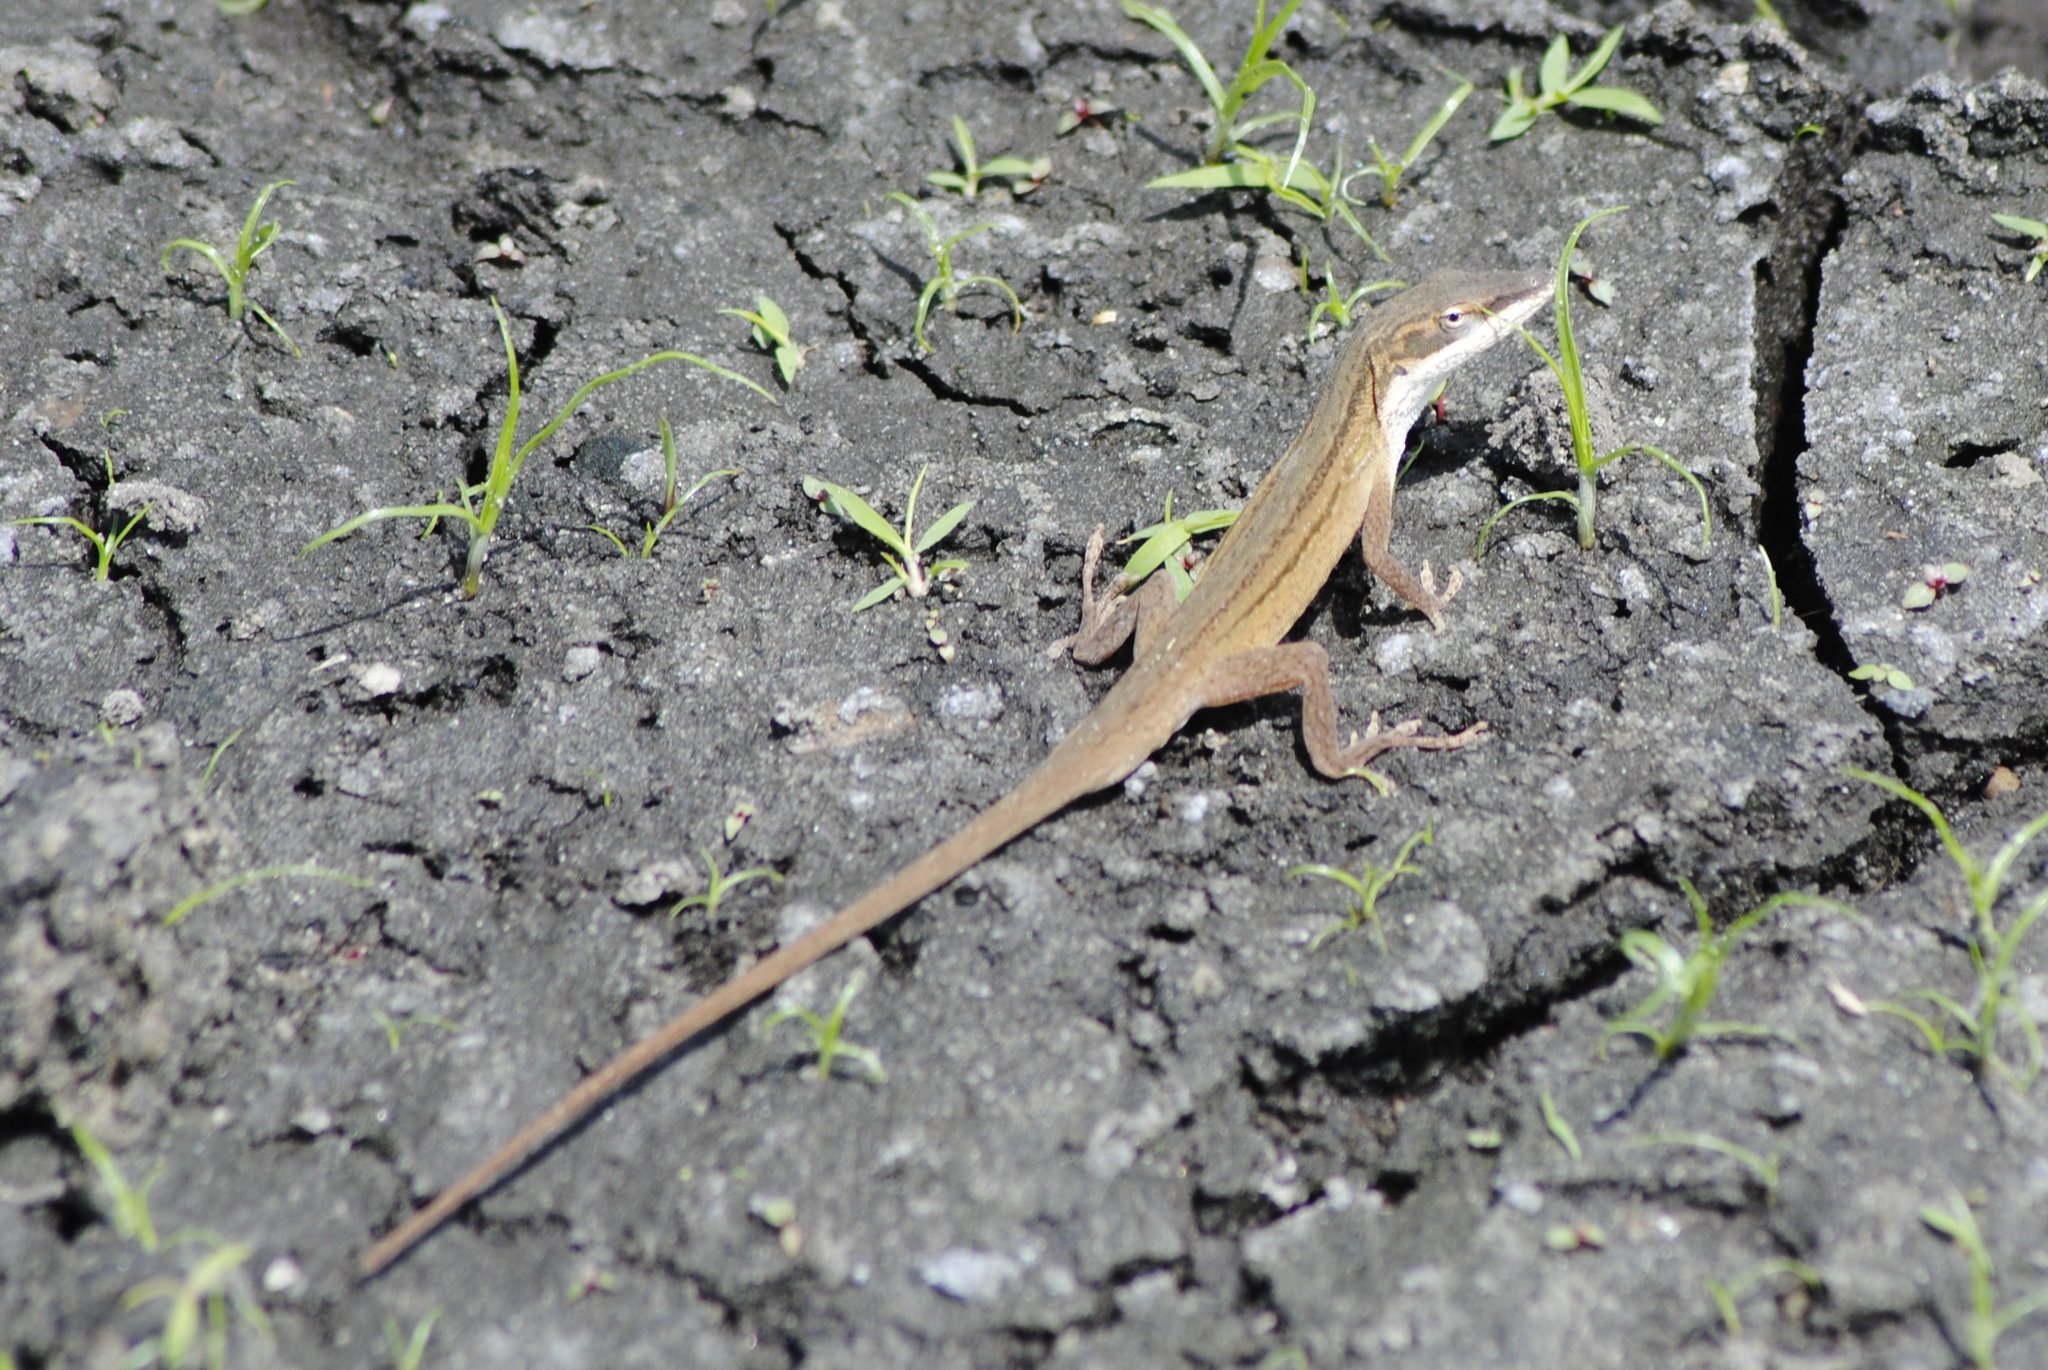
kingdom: Animalia
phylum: Chordata
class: Squamata
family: Dactyloidae
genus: Anolis
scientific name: Anolis carolinensis
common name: Green anole
